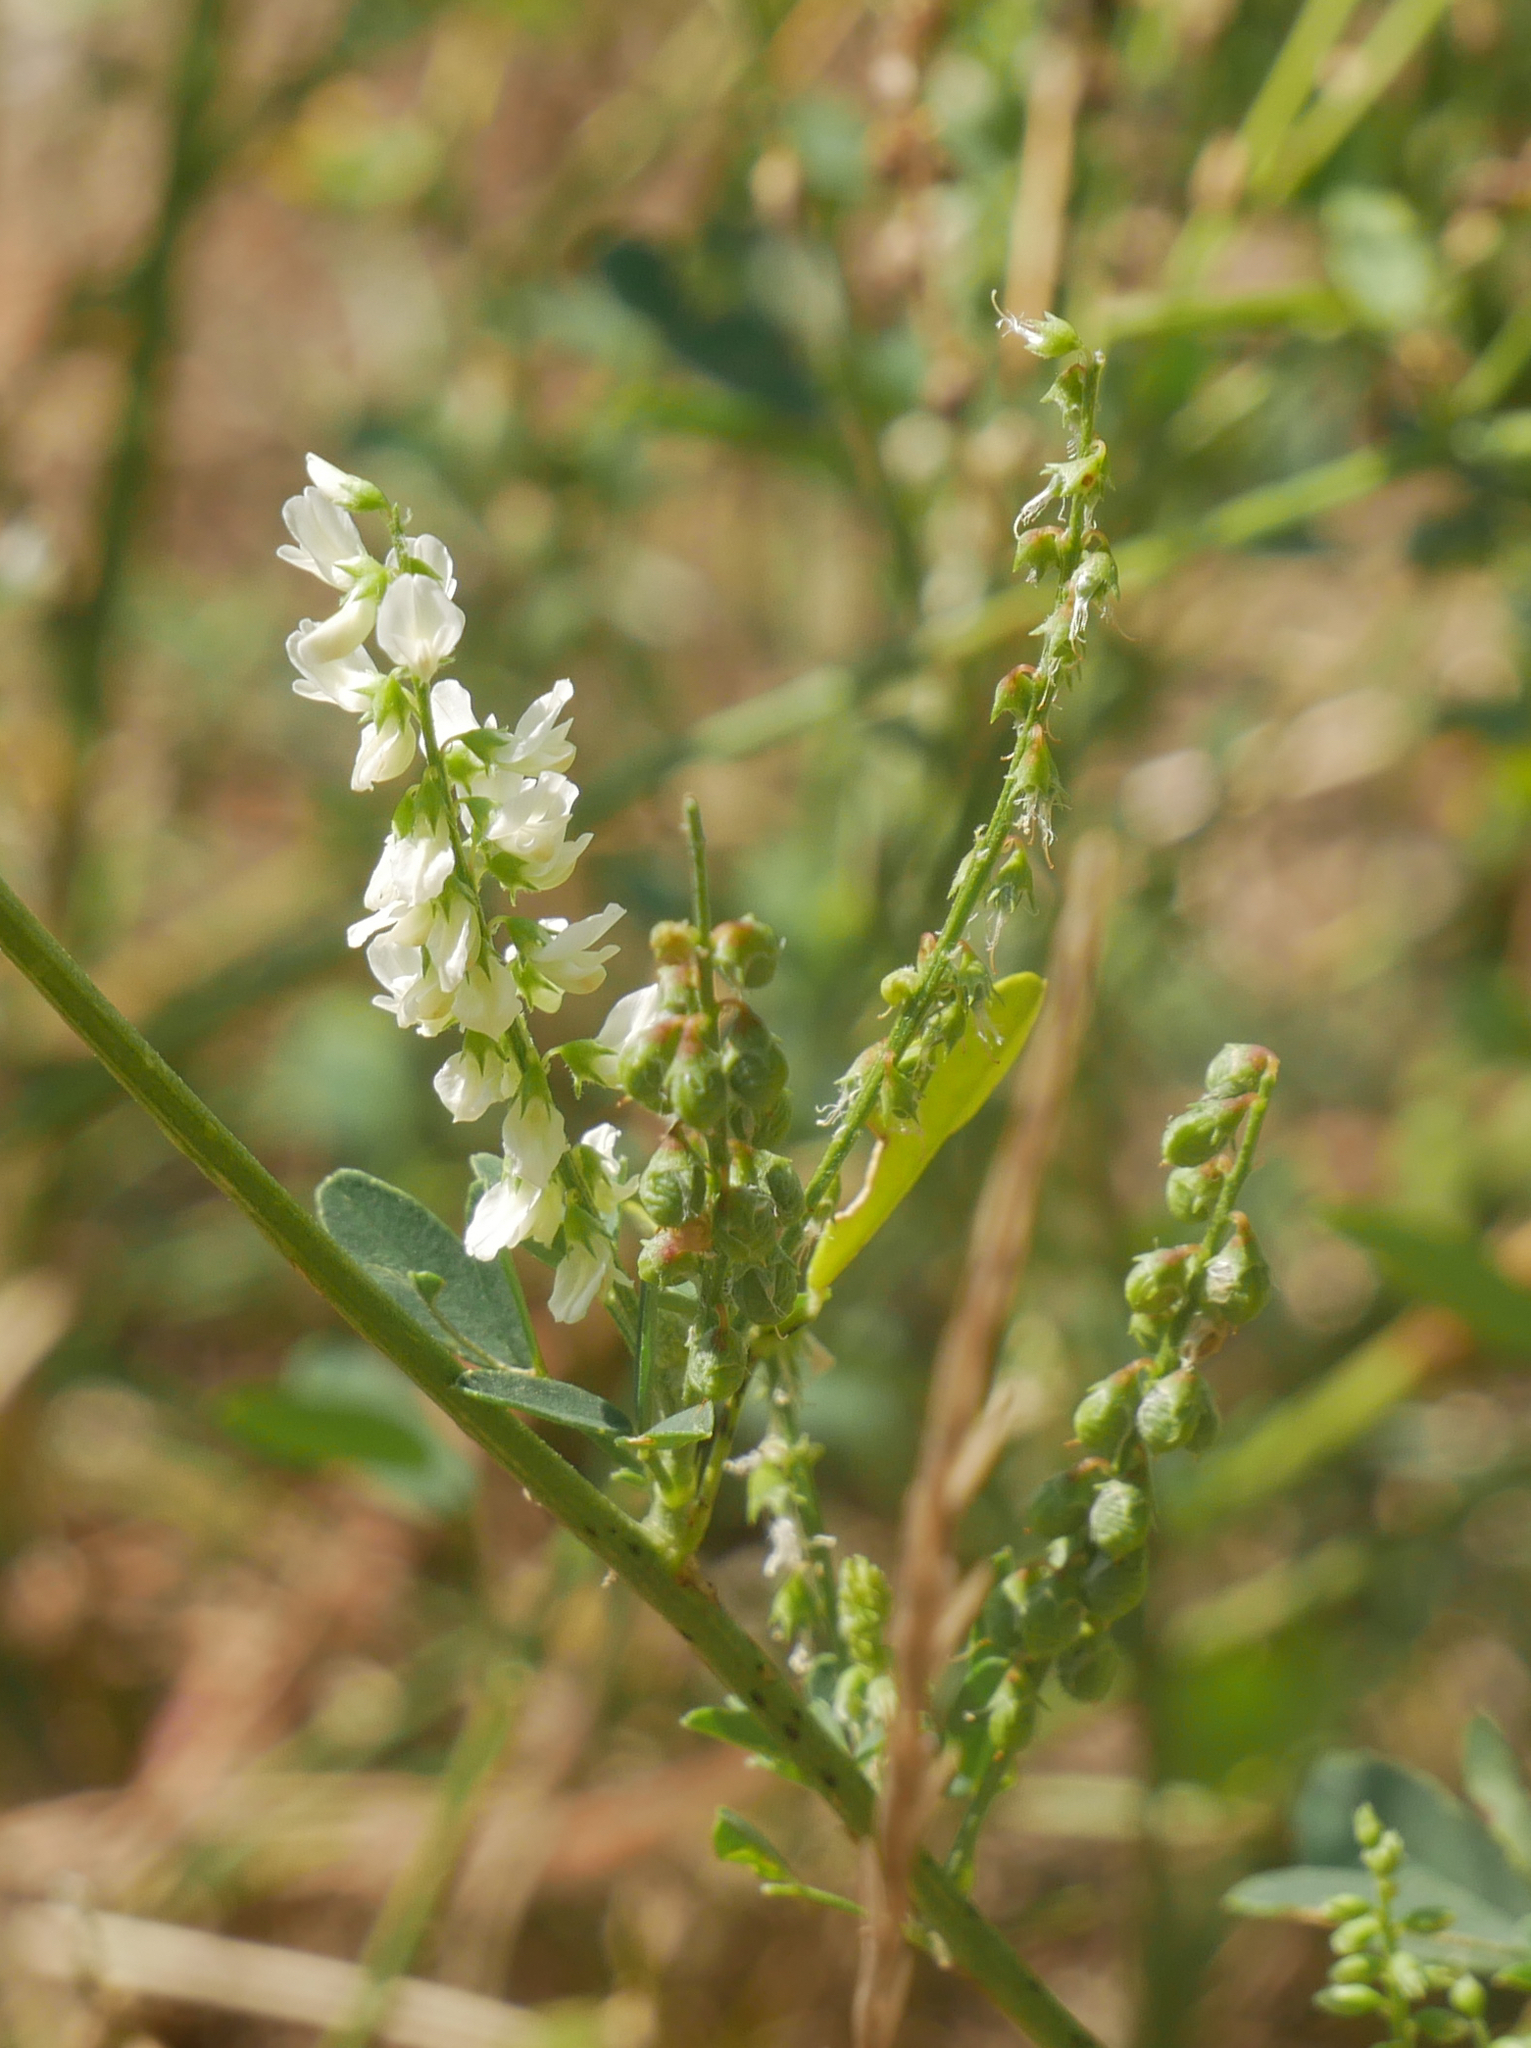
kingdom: Plantae
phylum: Tracheophyta
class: Magnoliopsida
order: Fabales
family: Fabaceae
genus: Melilotus
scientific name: Melilotus albus
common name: White melilot
